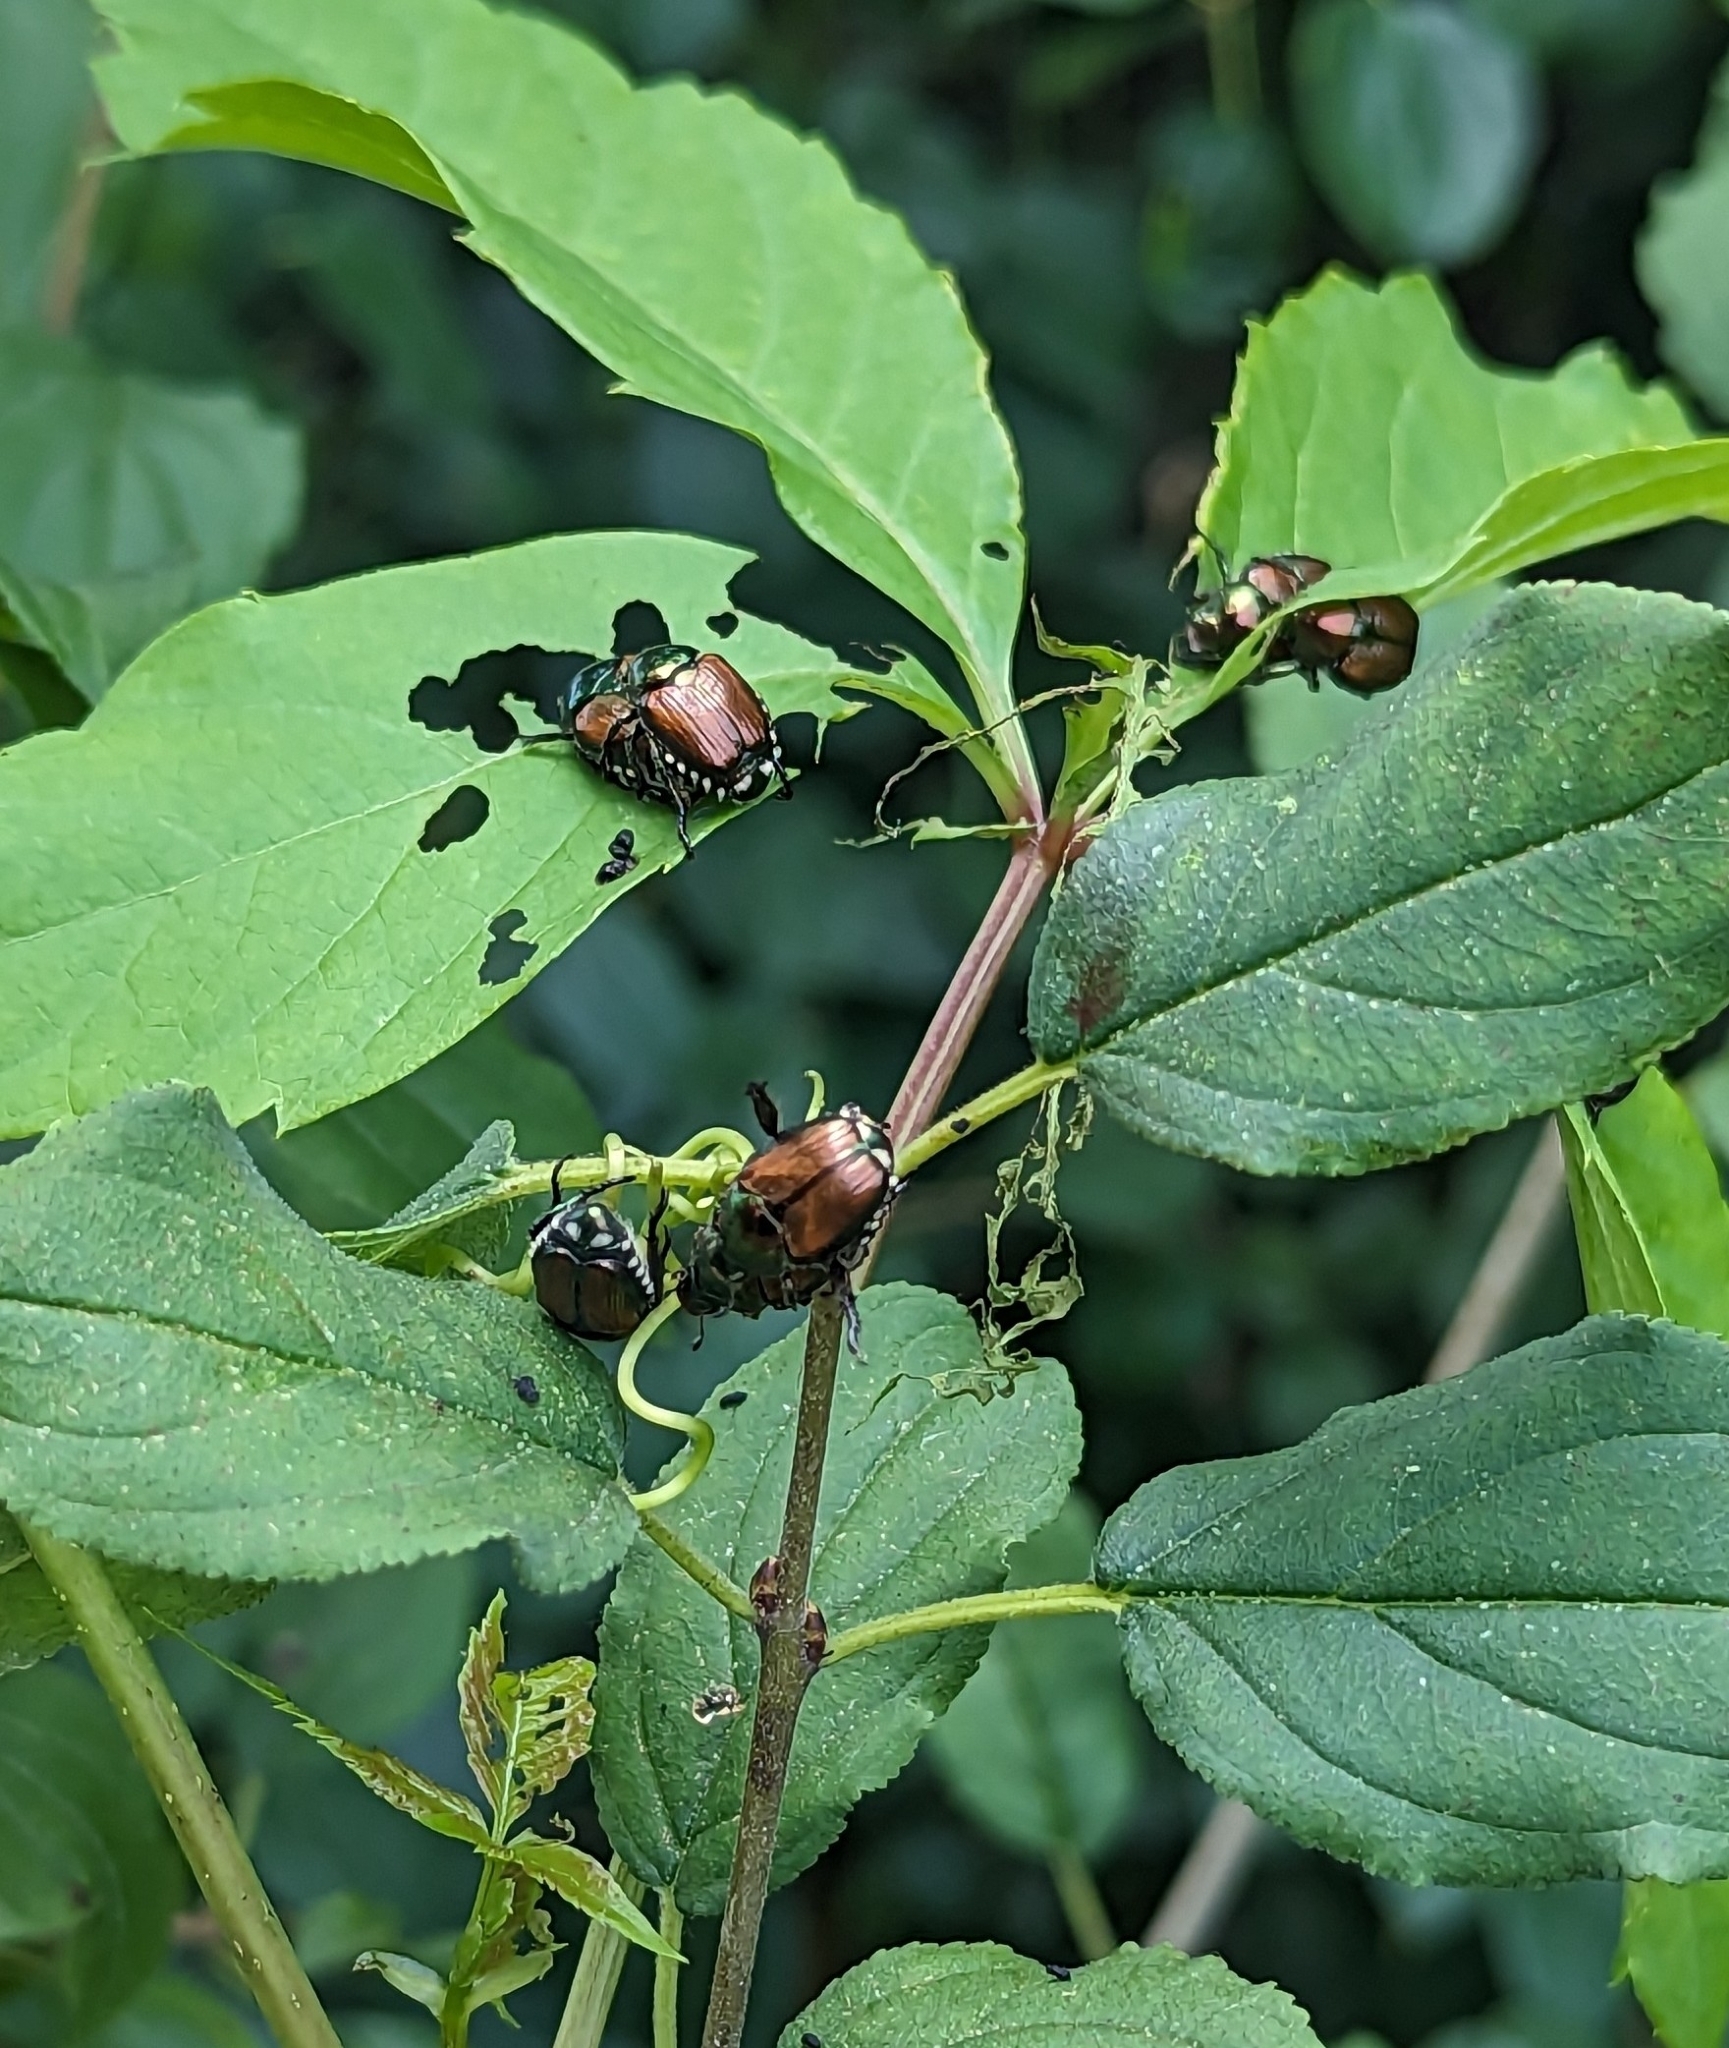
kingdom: Animalia
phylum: Arthropoda
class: Insecta
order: Coleoptera
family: Scarabaeidae
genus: Popillia
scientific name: Popillia japonica
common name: Japanese beetle
